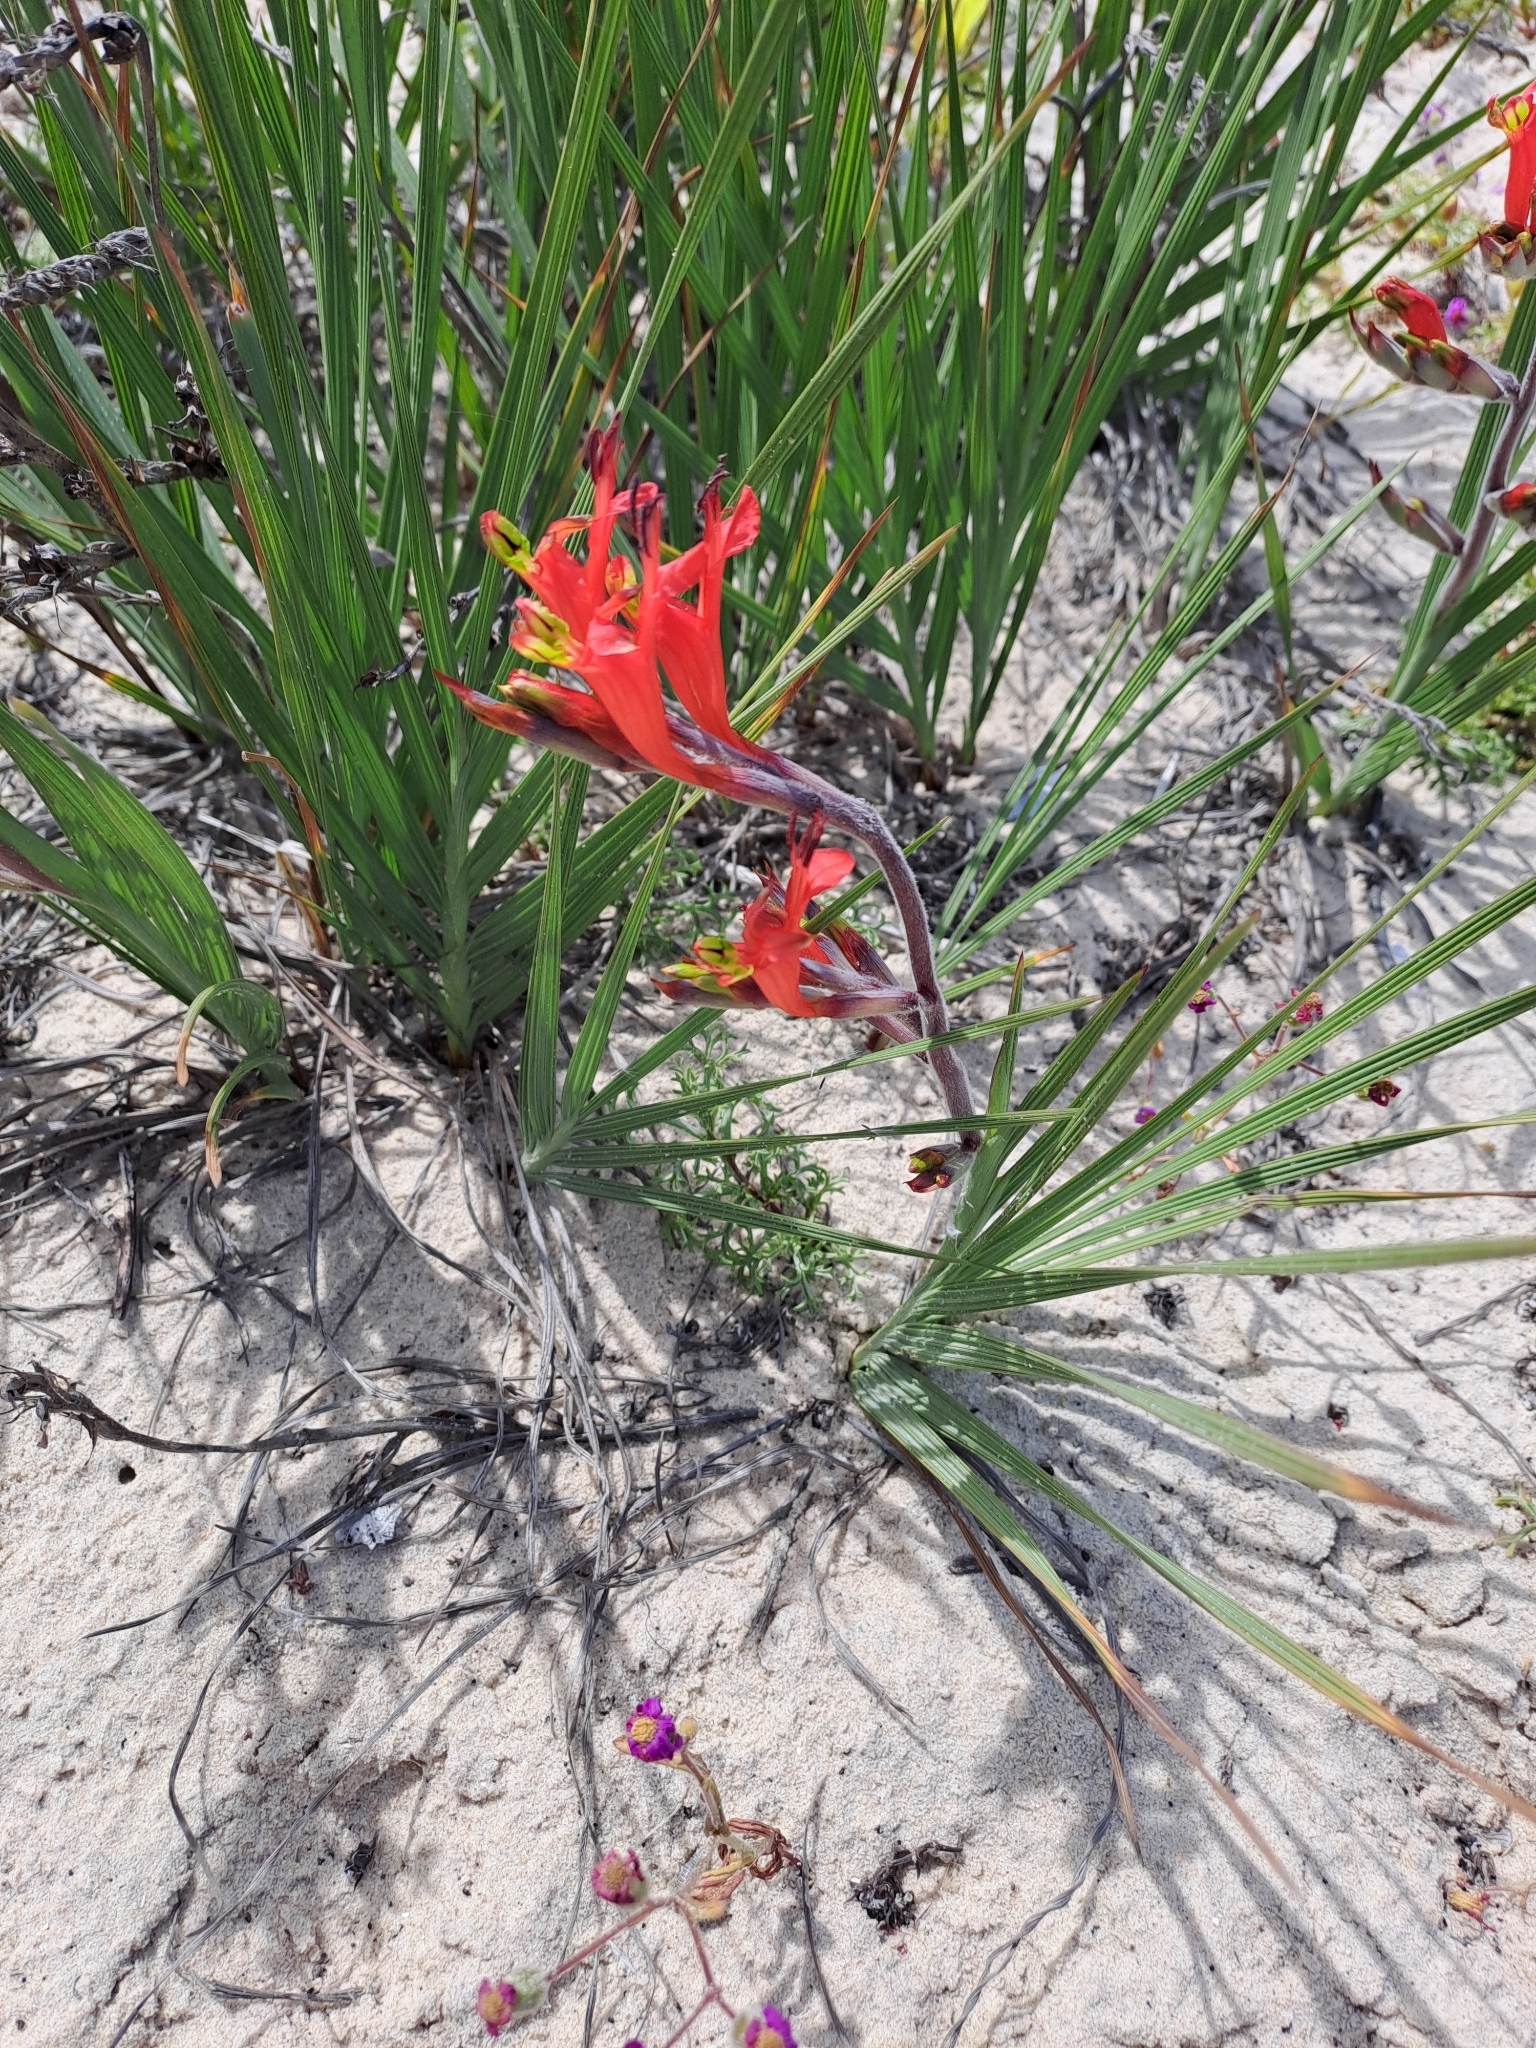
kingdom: Plantae
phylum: Tracheophyta
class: Liliopsida
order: Asparagales
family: Iridaceae
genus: Babiana
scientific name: Babiana hirsuta
